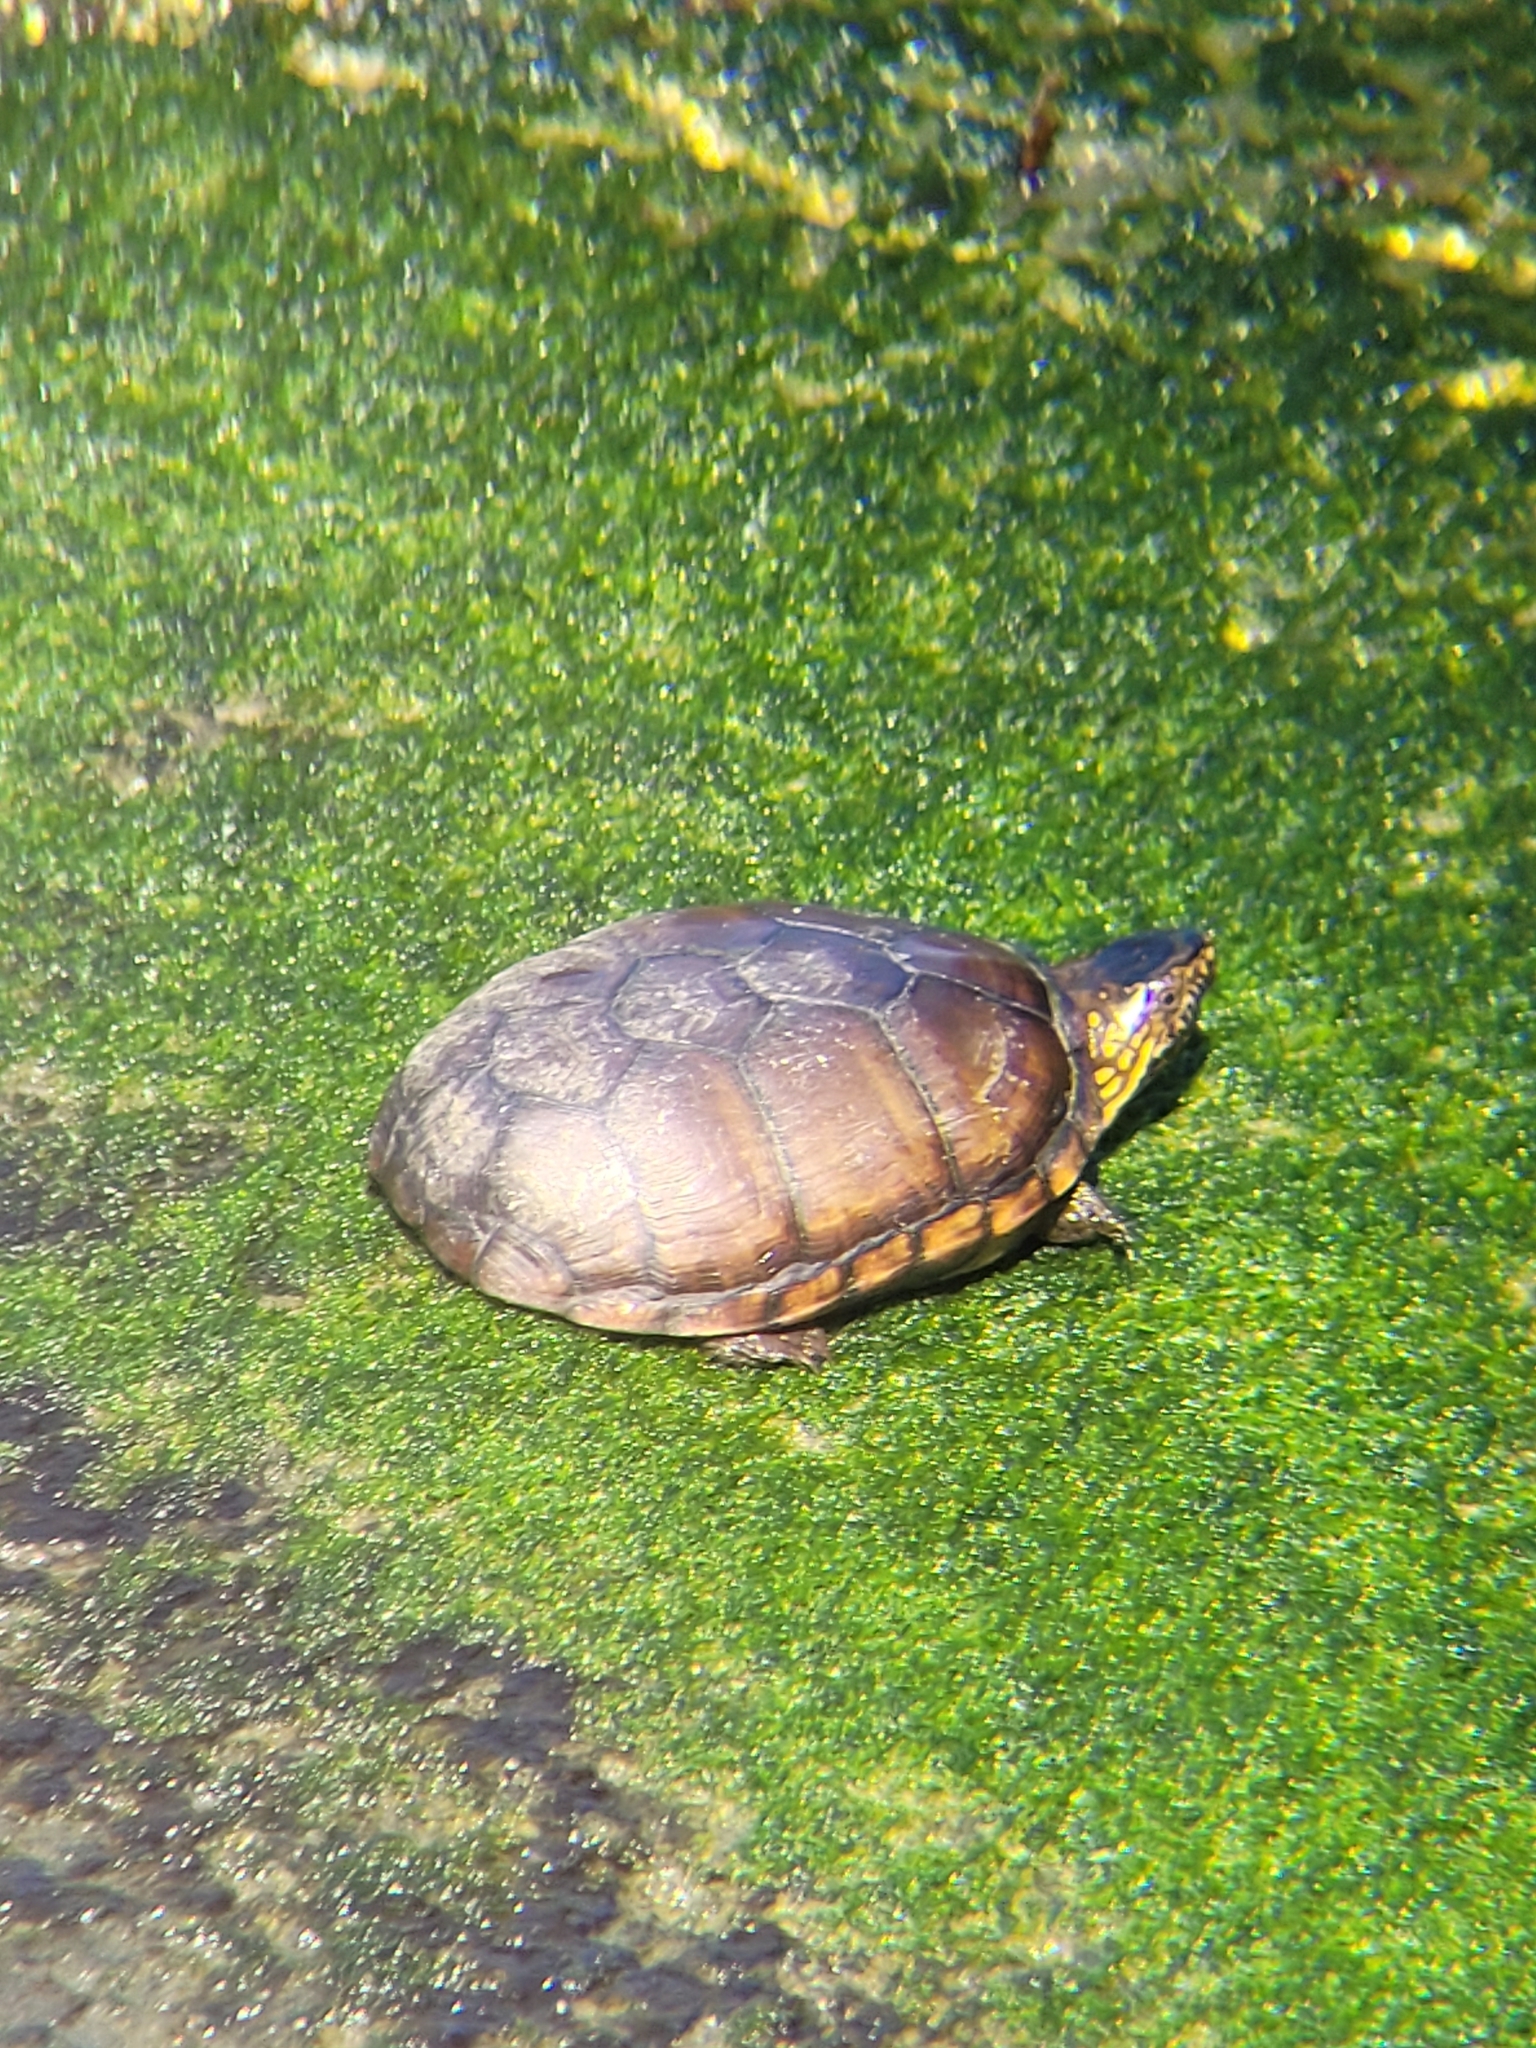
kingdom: Animalia
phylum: Chordata
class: Testudines
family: Kinosternidae
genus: Kinosternon
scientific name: Kinosternon subrubrum
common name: Eastern mud turtle
